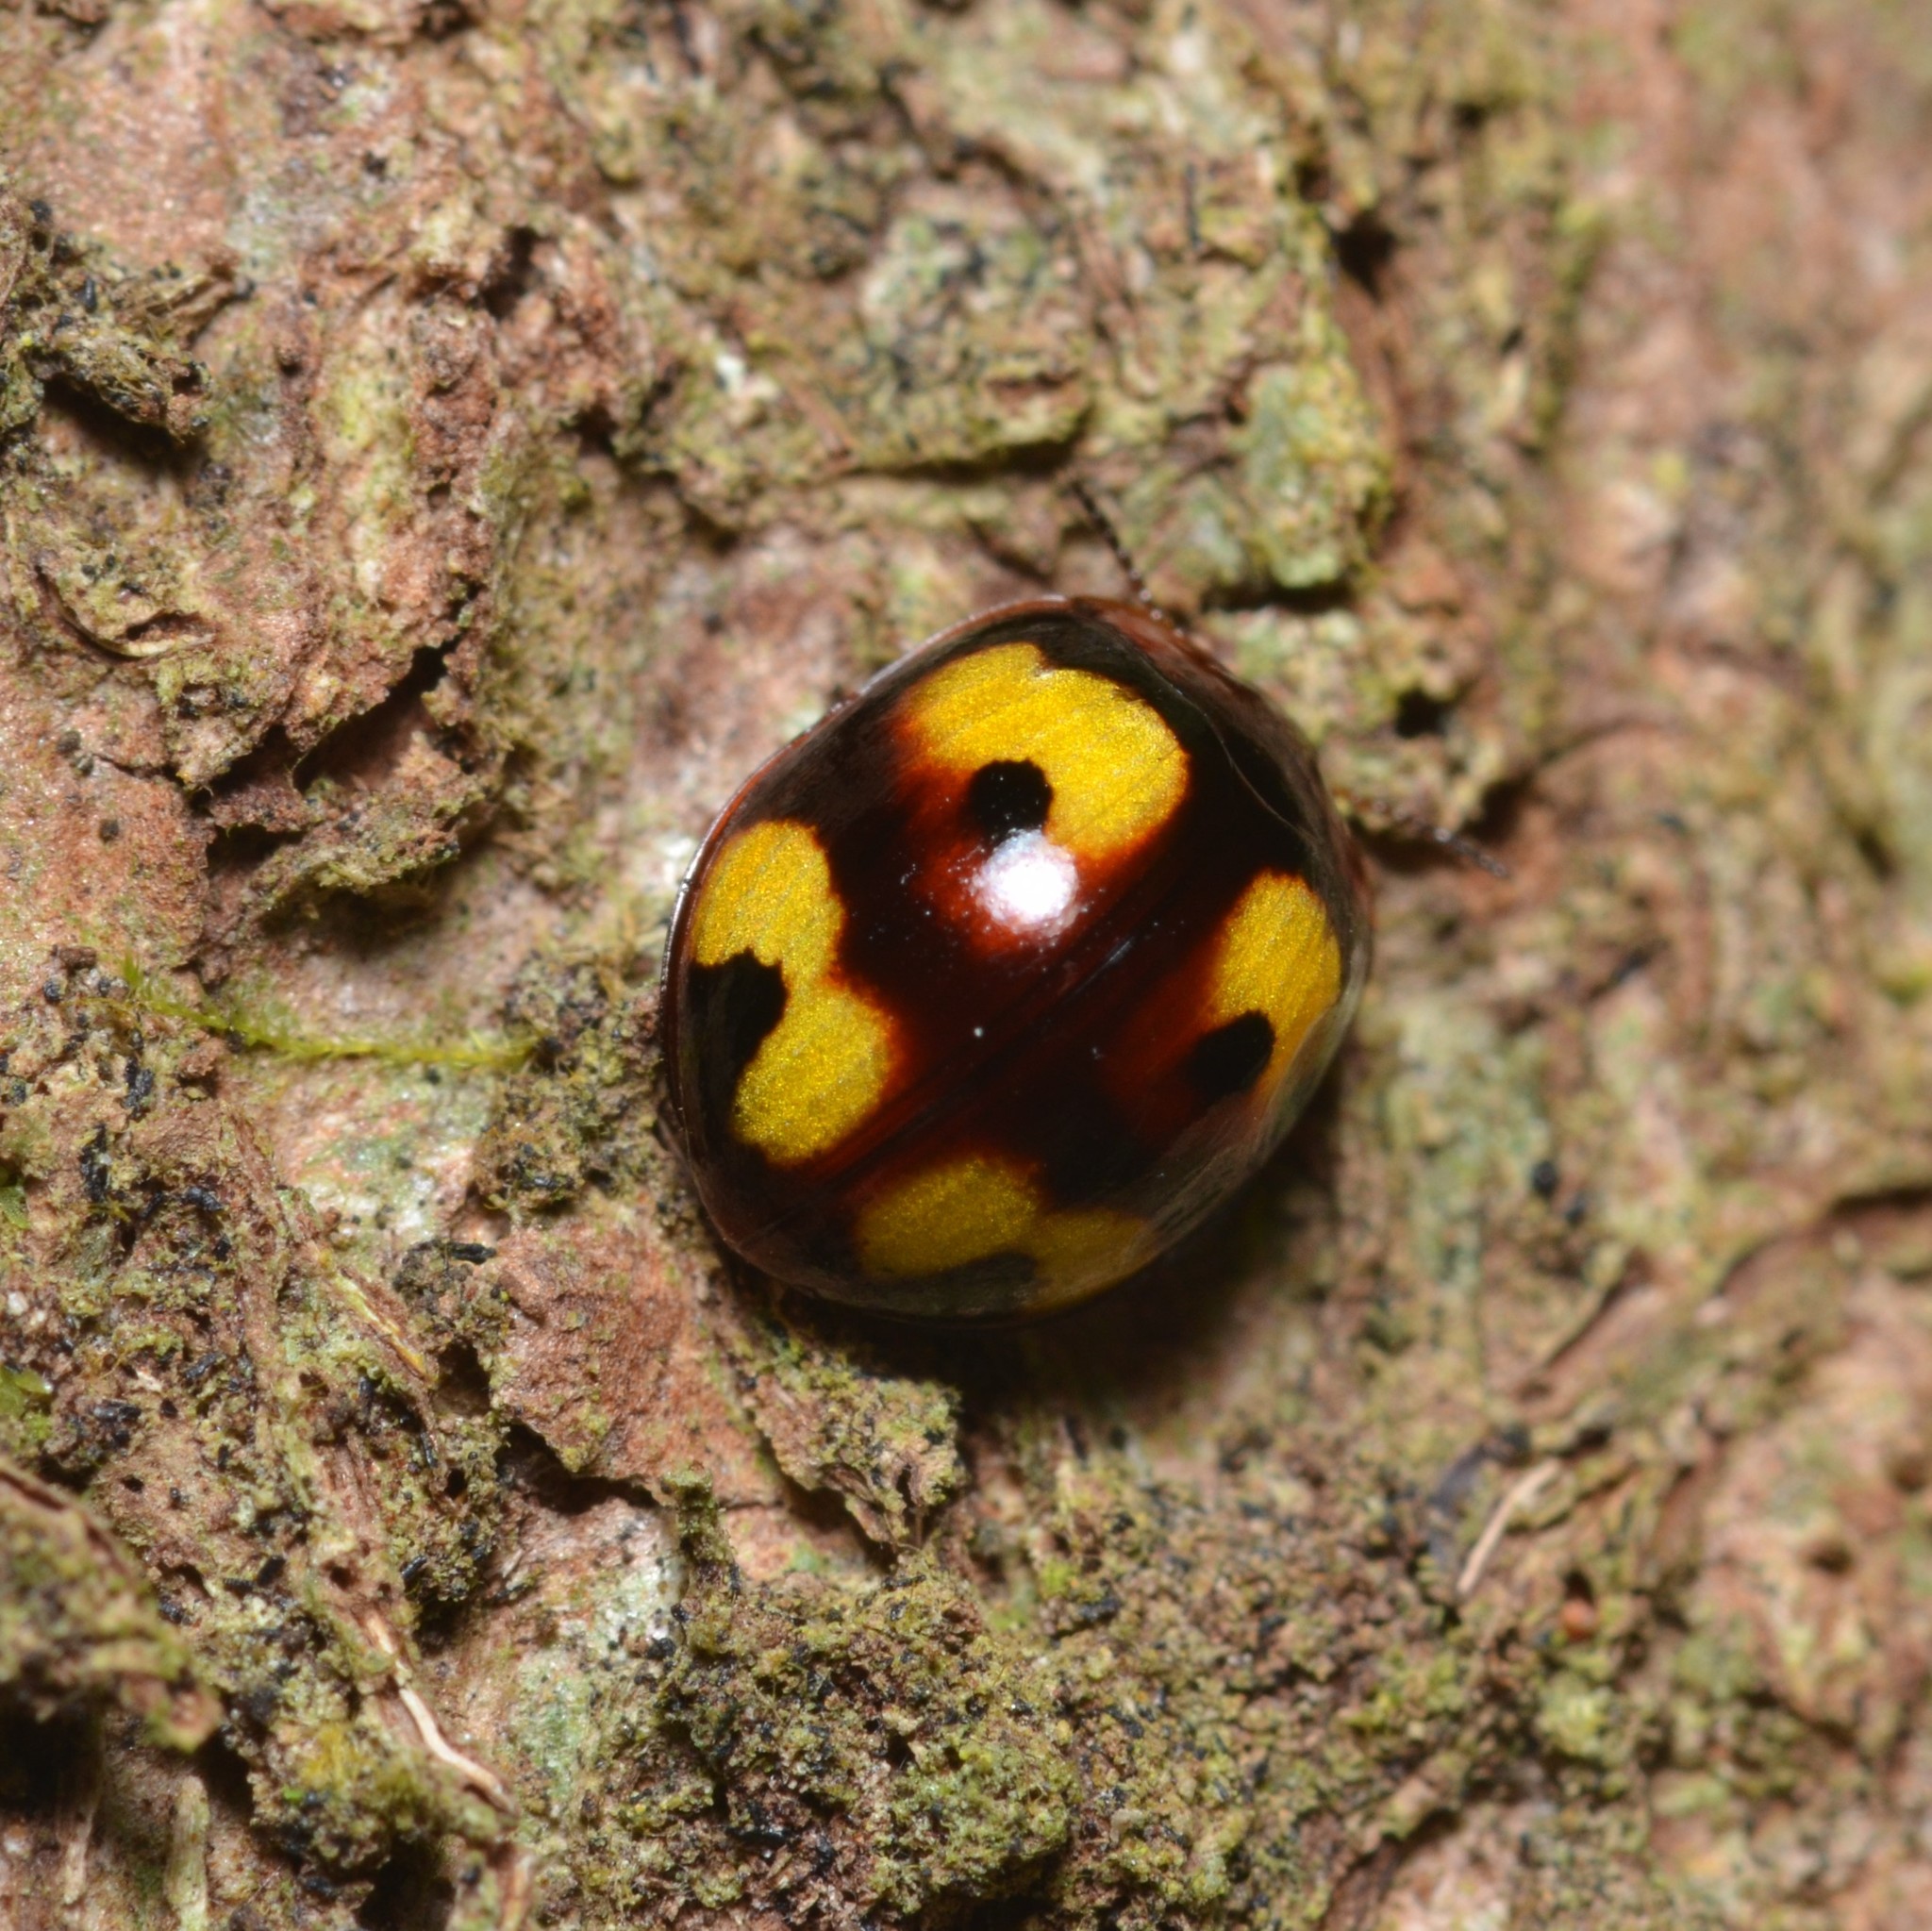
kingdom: Animalia
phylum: Arthropoda
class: Insecta
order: Coleoptera
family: Tenebrionidae
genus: Derispia
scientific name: Derispia
